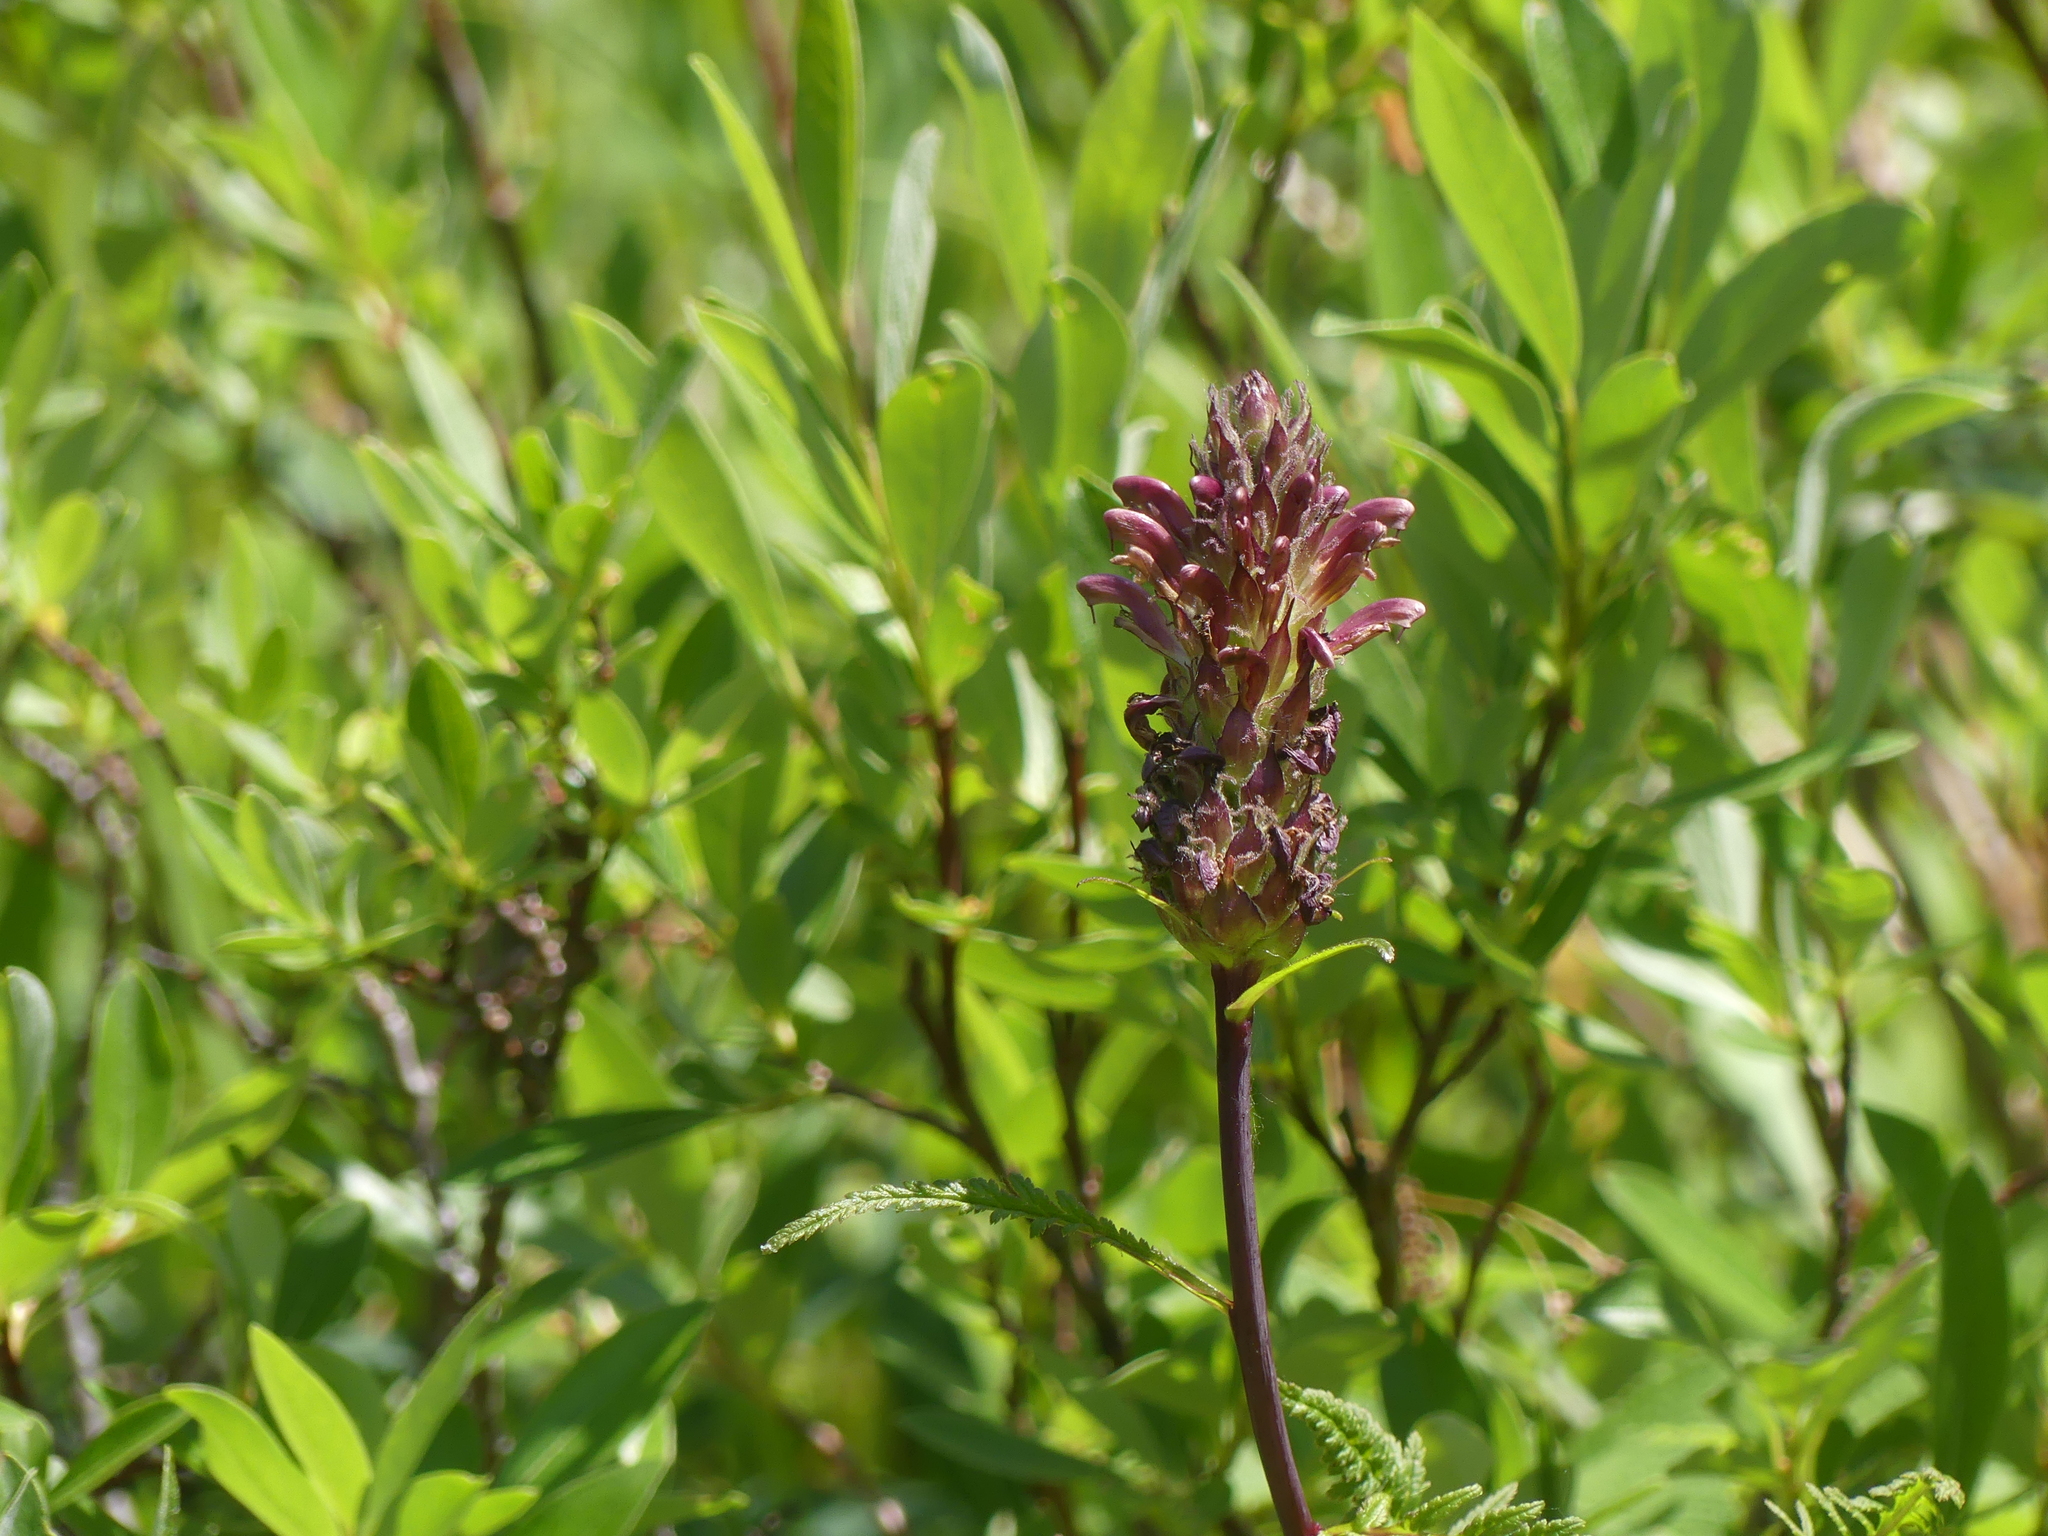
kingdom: Plantae
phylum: Tracheophyta
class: Magnoliopsida
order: Lamiales
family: Orobanchaceae
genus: Pedicularis
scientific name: Pedicularis bracteosa
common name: Bracted lousewort
